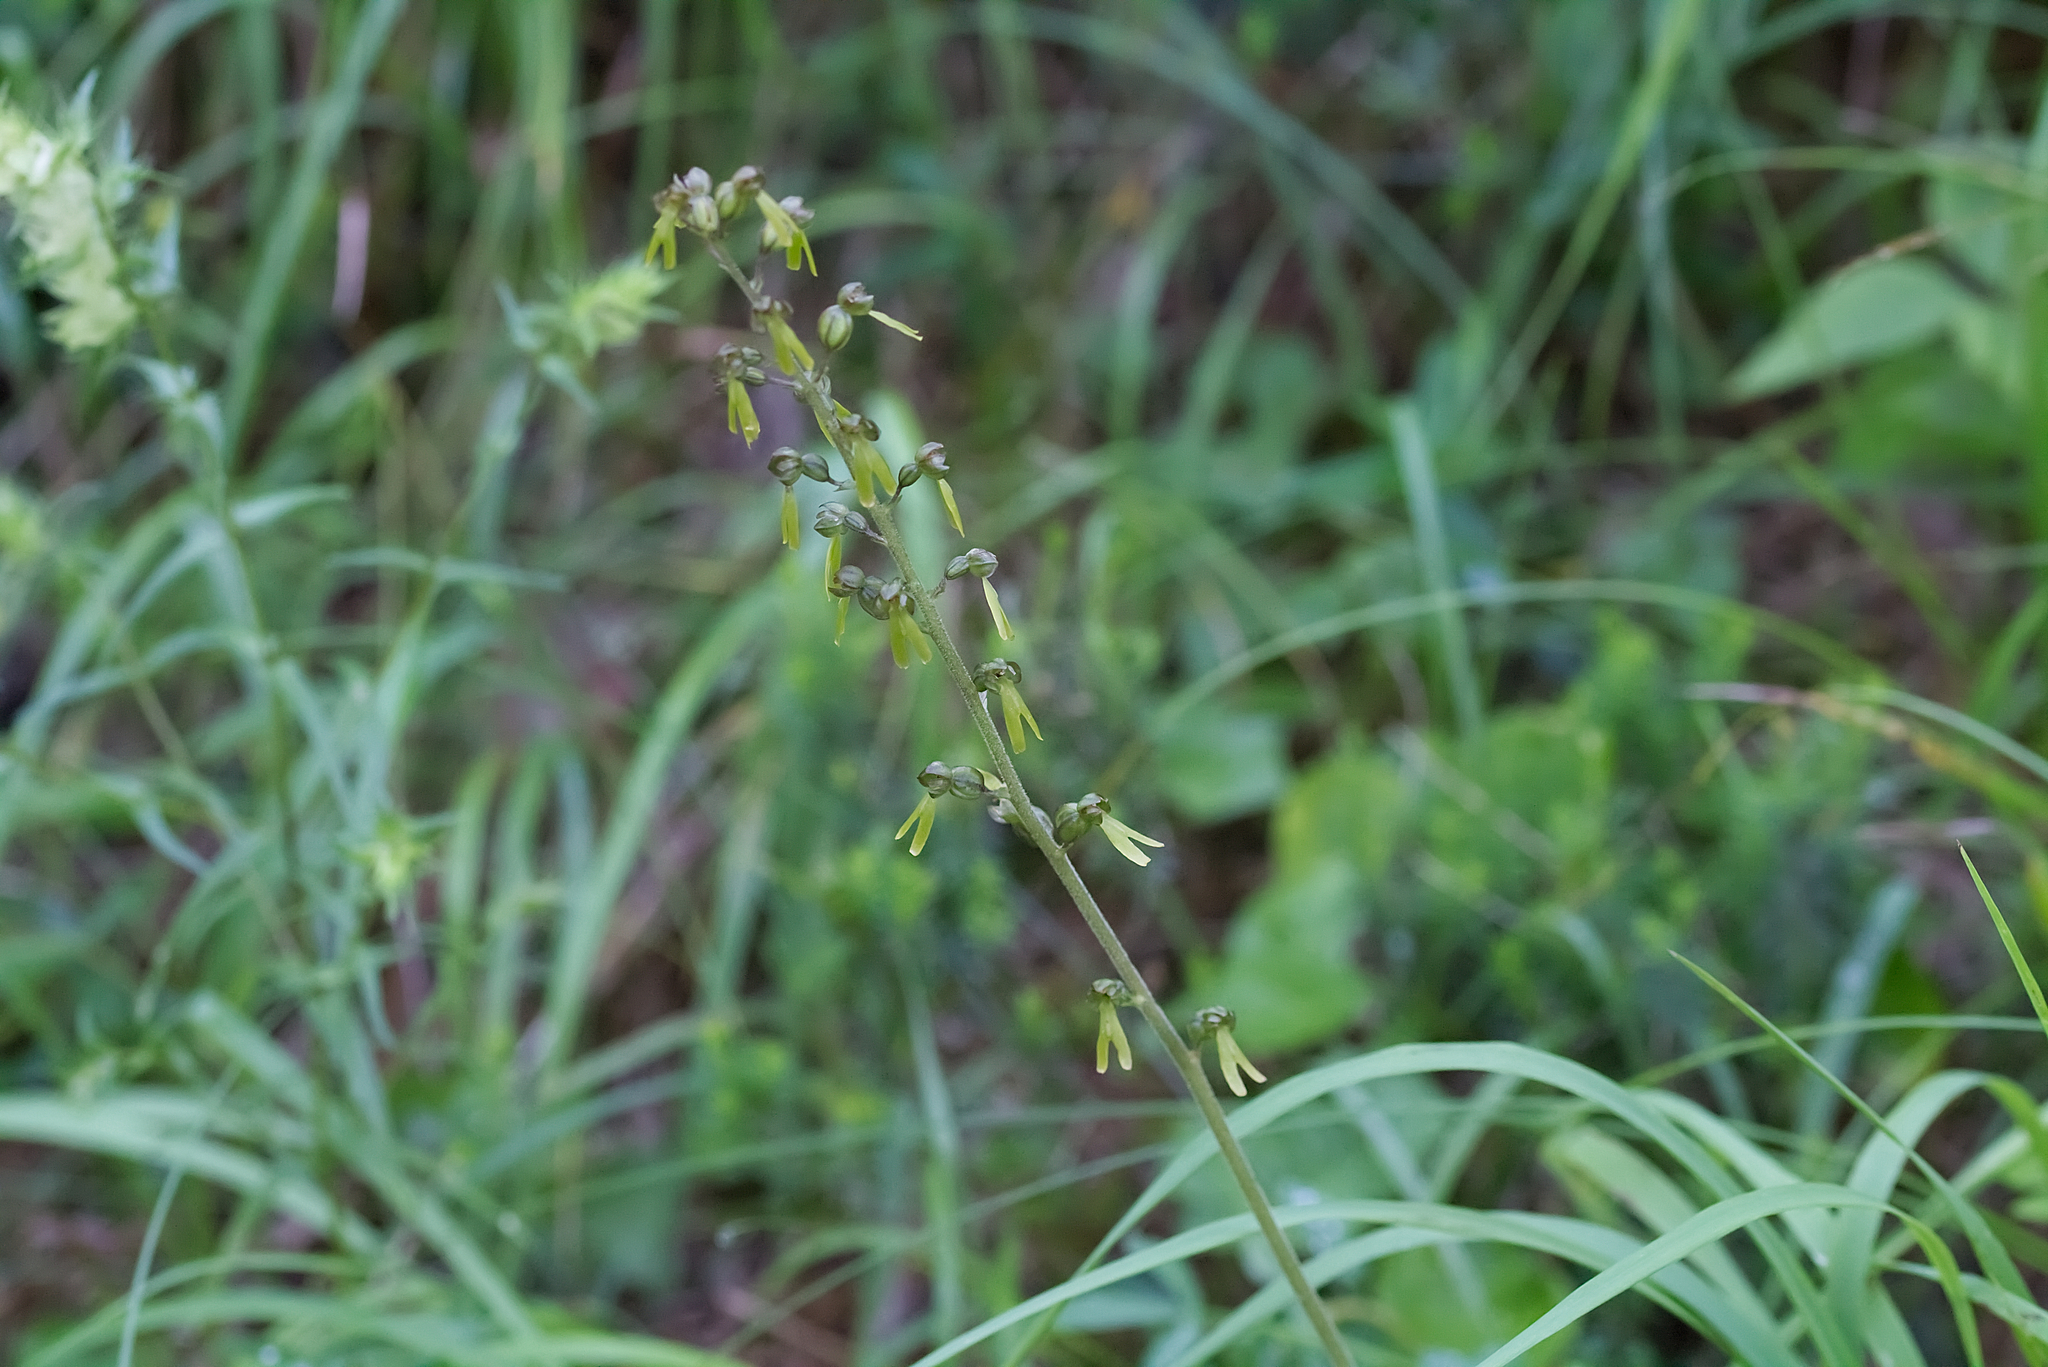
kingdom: Plantae
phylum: Tracheophyta
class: Liliopsida
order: Asparagales
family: Orchidaceae
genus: Neottia
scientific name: Neottia ovata
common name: Common twayblade
